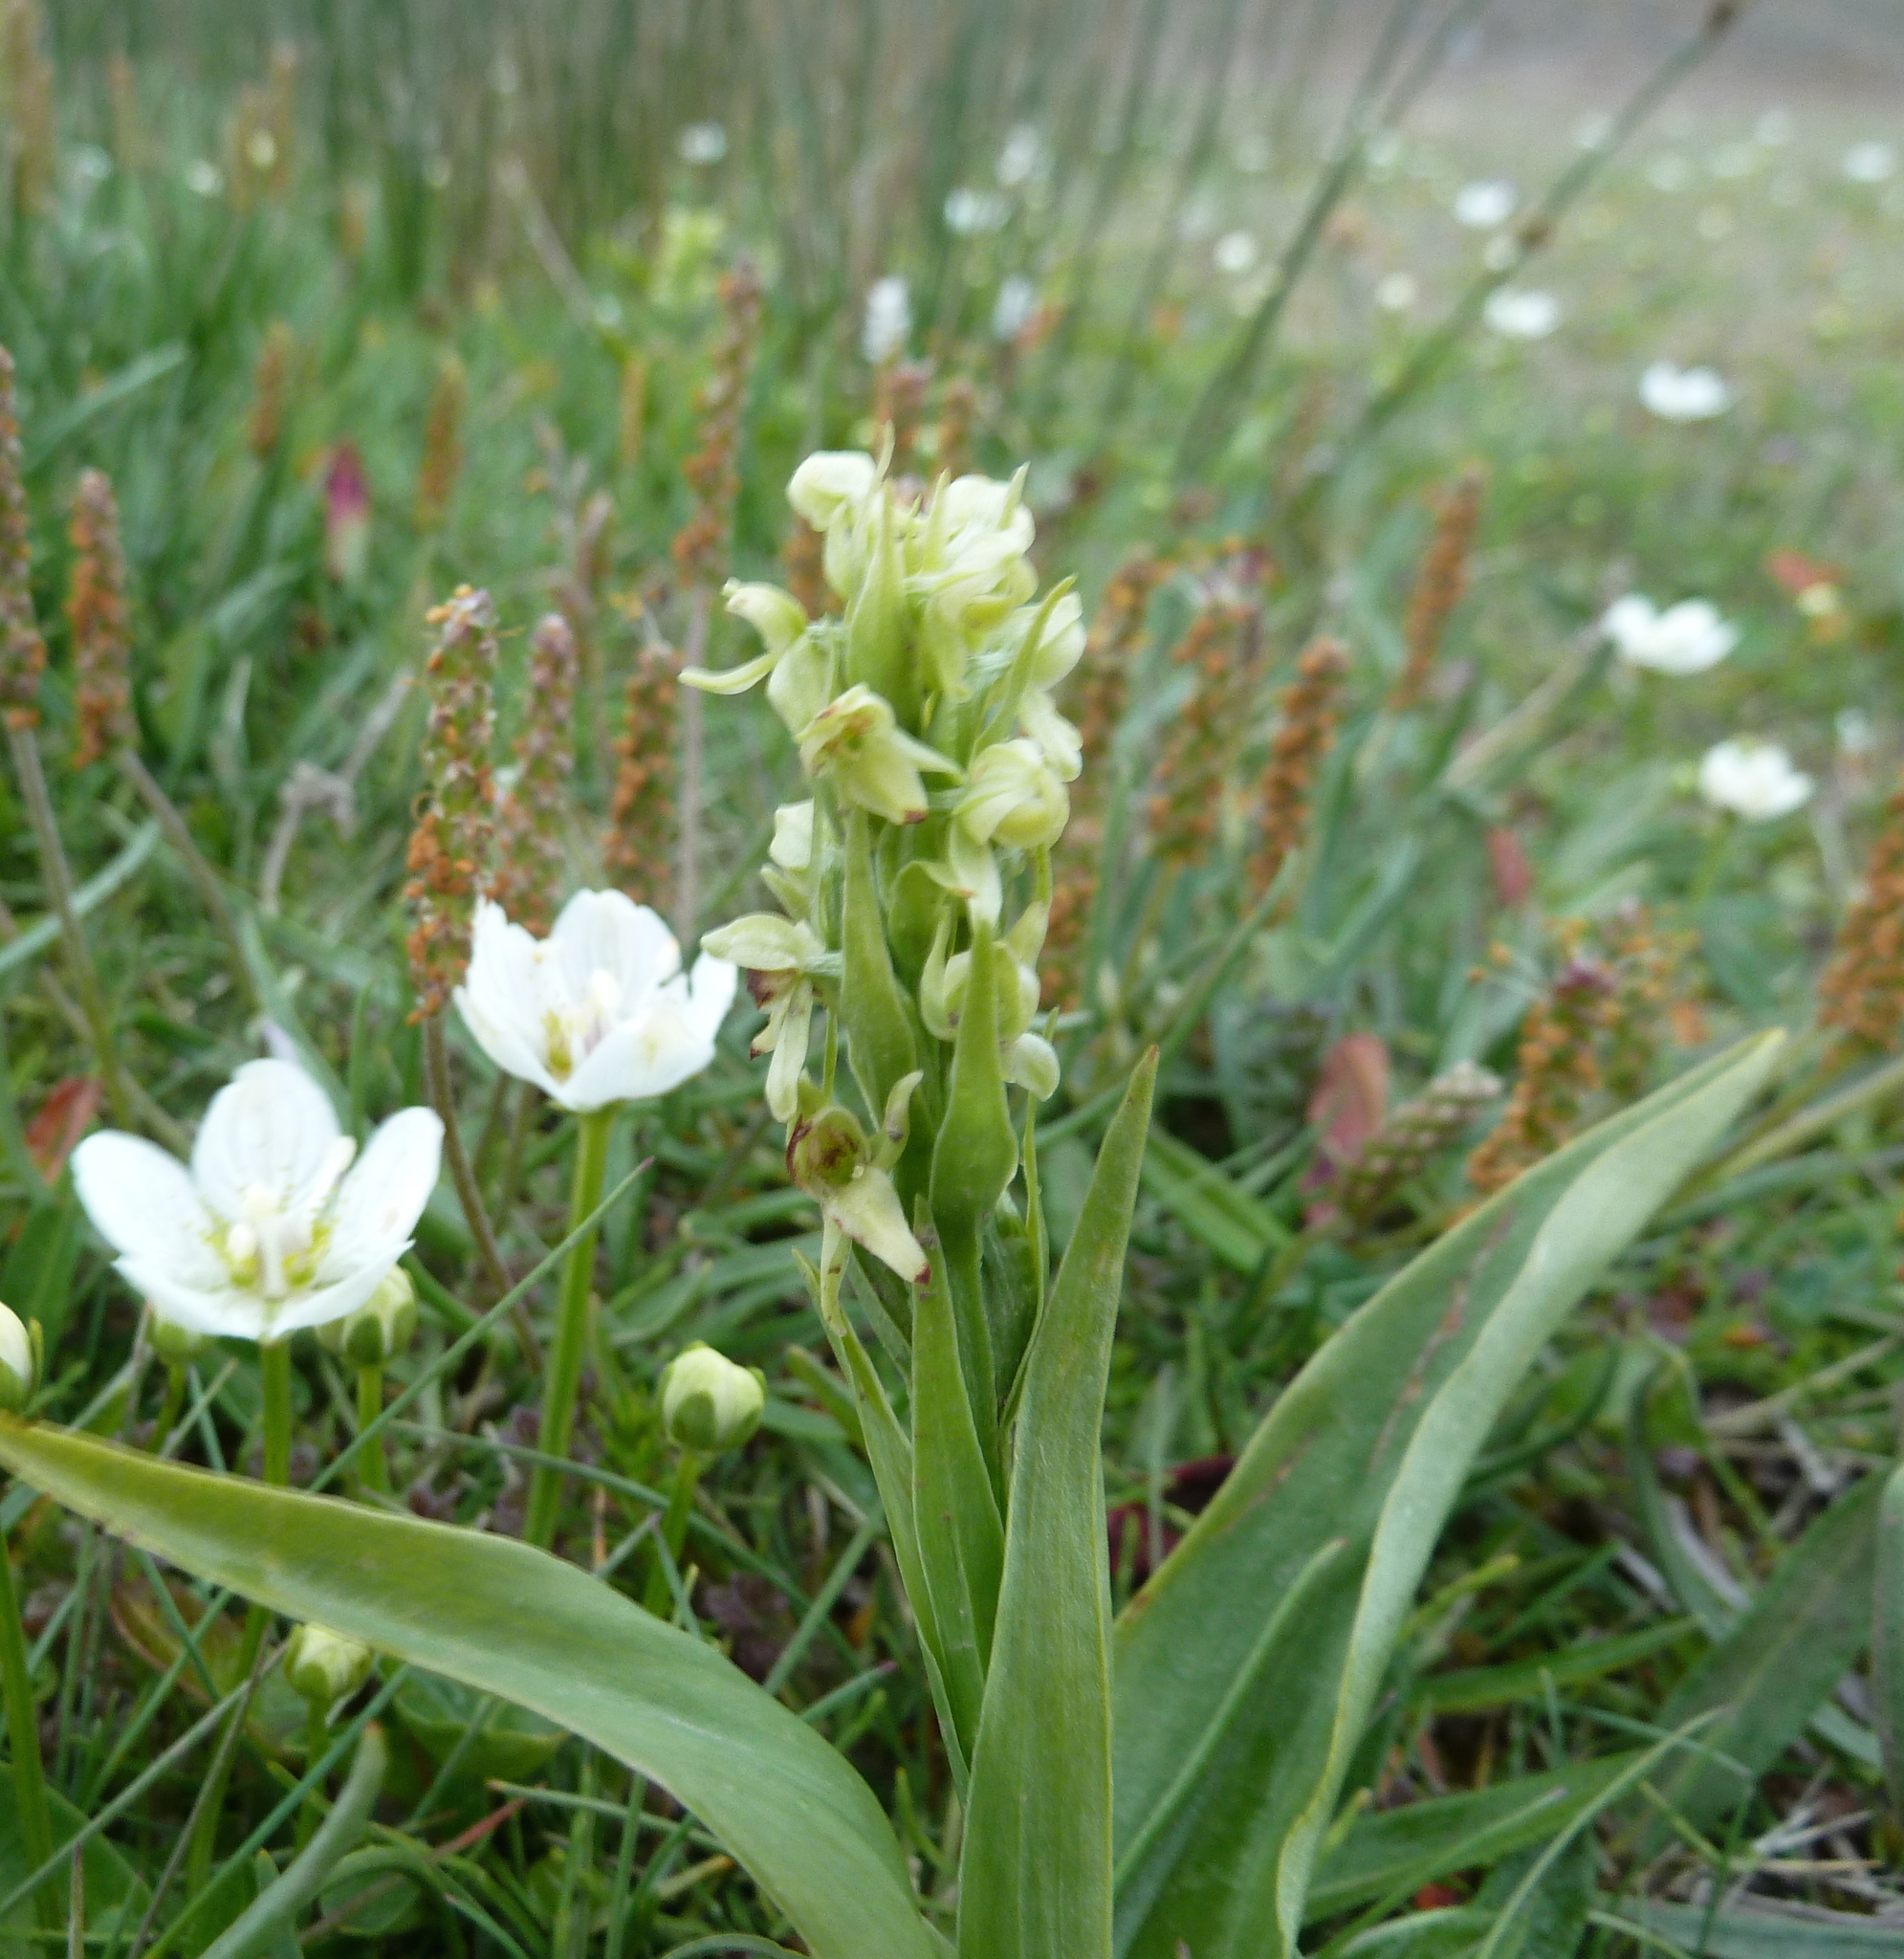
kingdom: Plantae
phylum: Tracheophyta
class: Liliopsida
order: Asparagales
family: Orchidaceae
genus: Platanthera
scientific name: Platanthera hyperborea
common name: Northern green orchid
